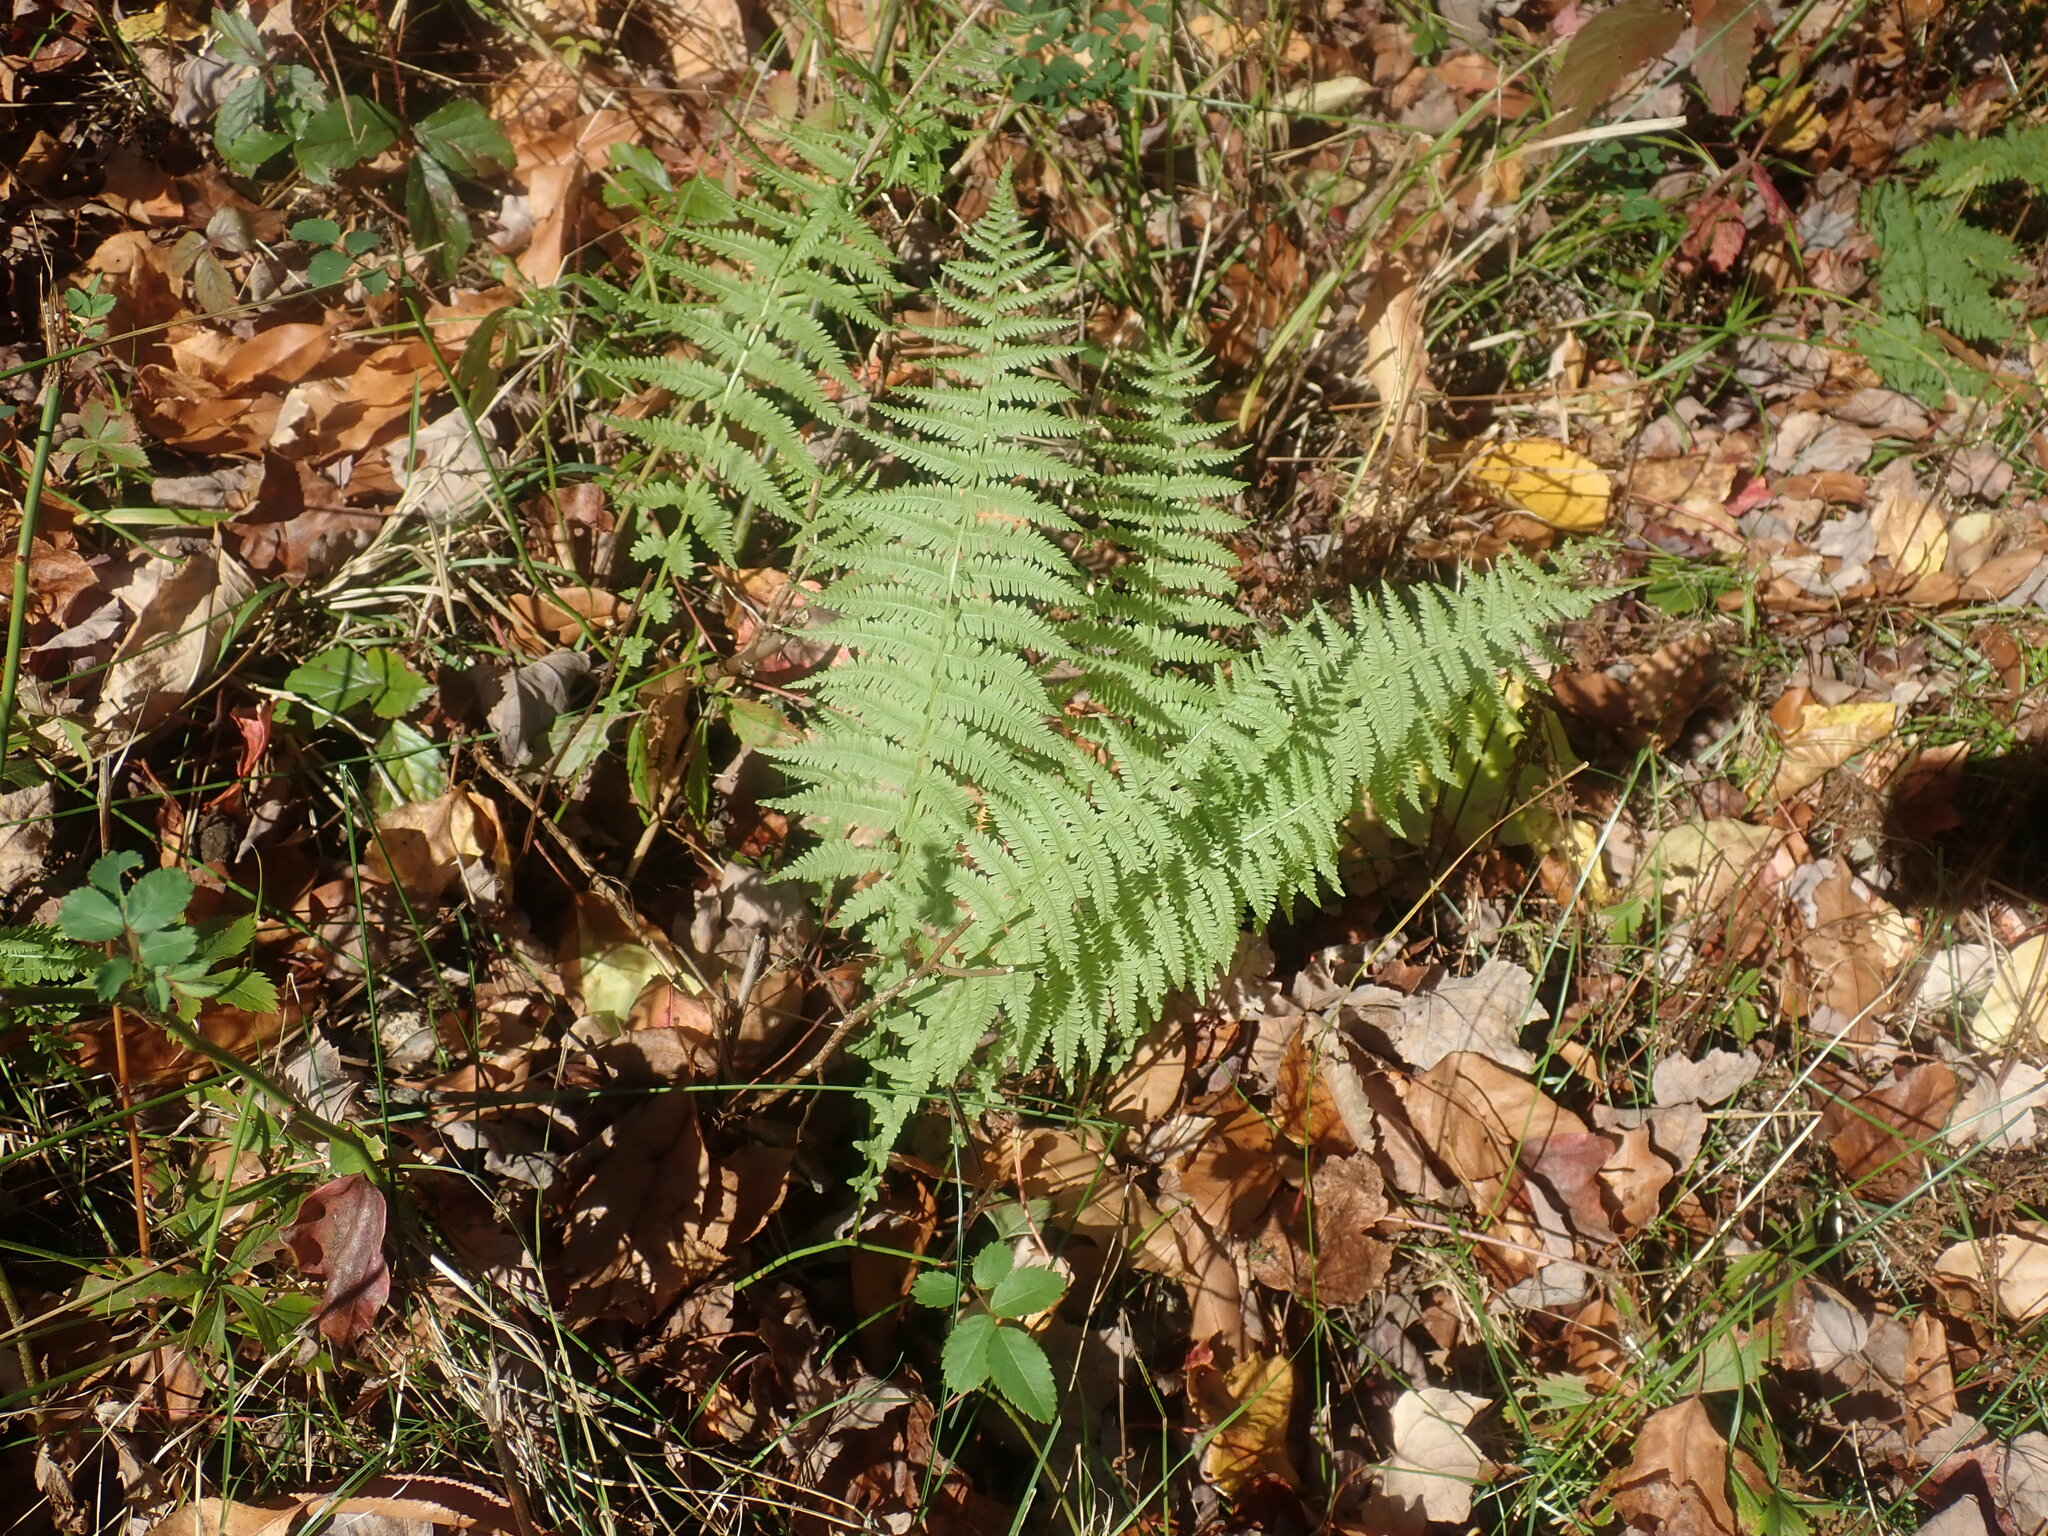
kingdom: Plantae
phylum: Tracheophyta
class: Polypodiopsida
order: Polypodiales
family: Thelypteridaceae
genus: Amauropelta
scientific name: Amauropelta noveboracensis
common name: New york fern
